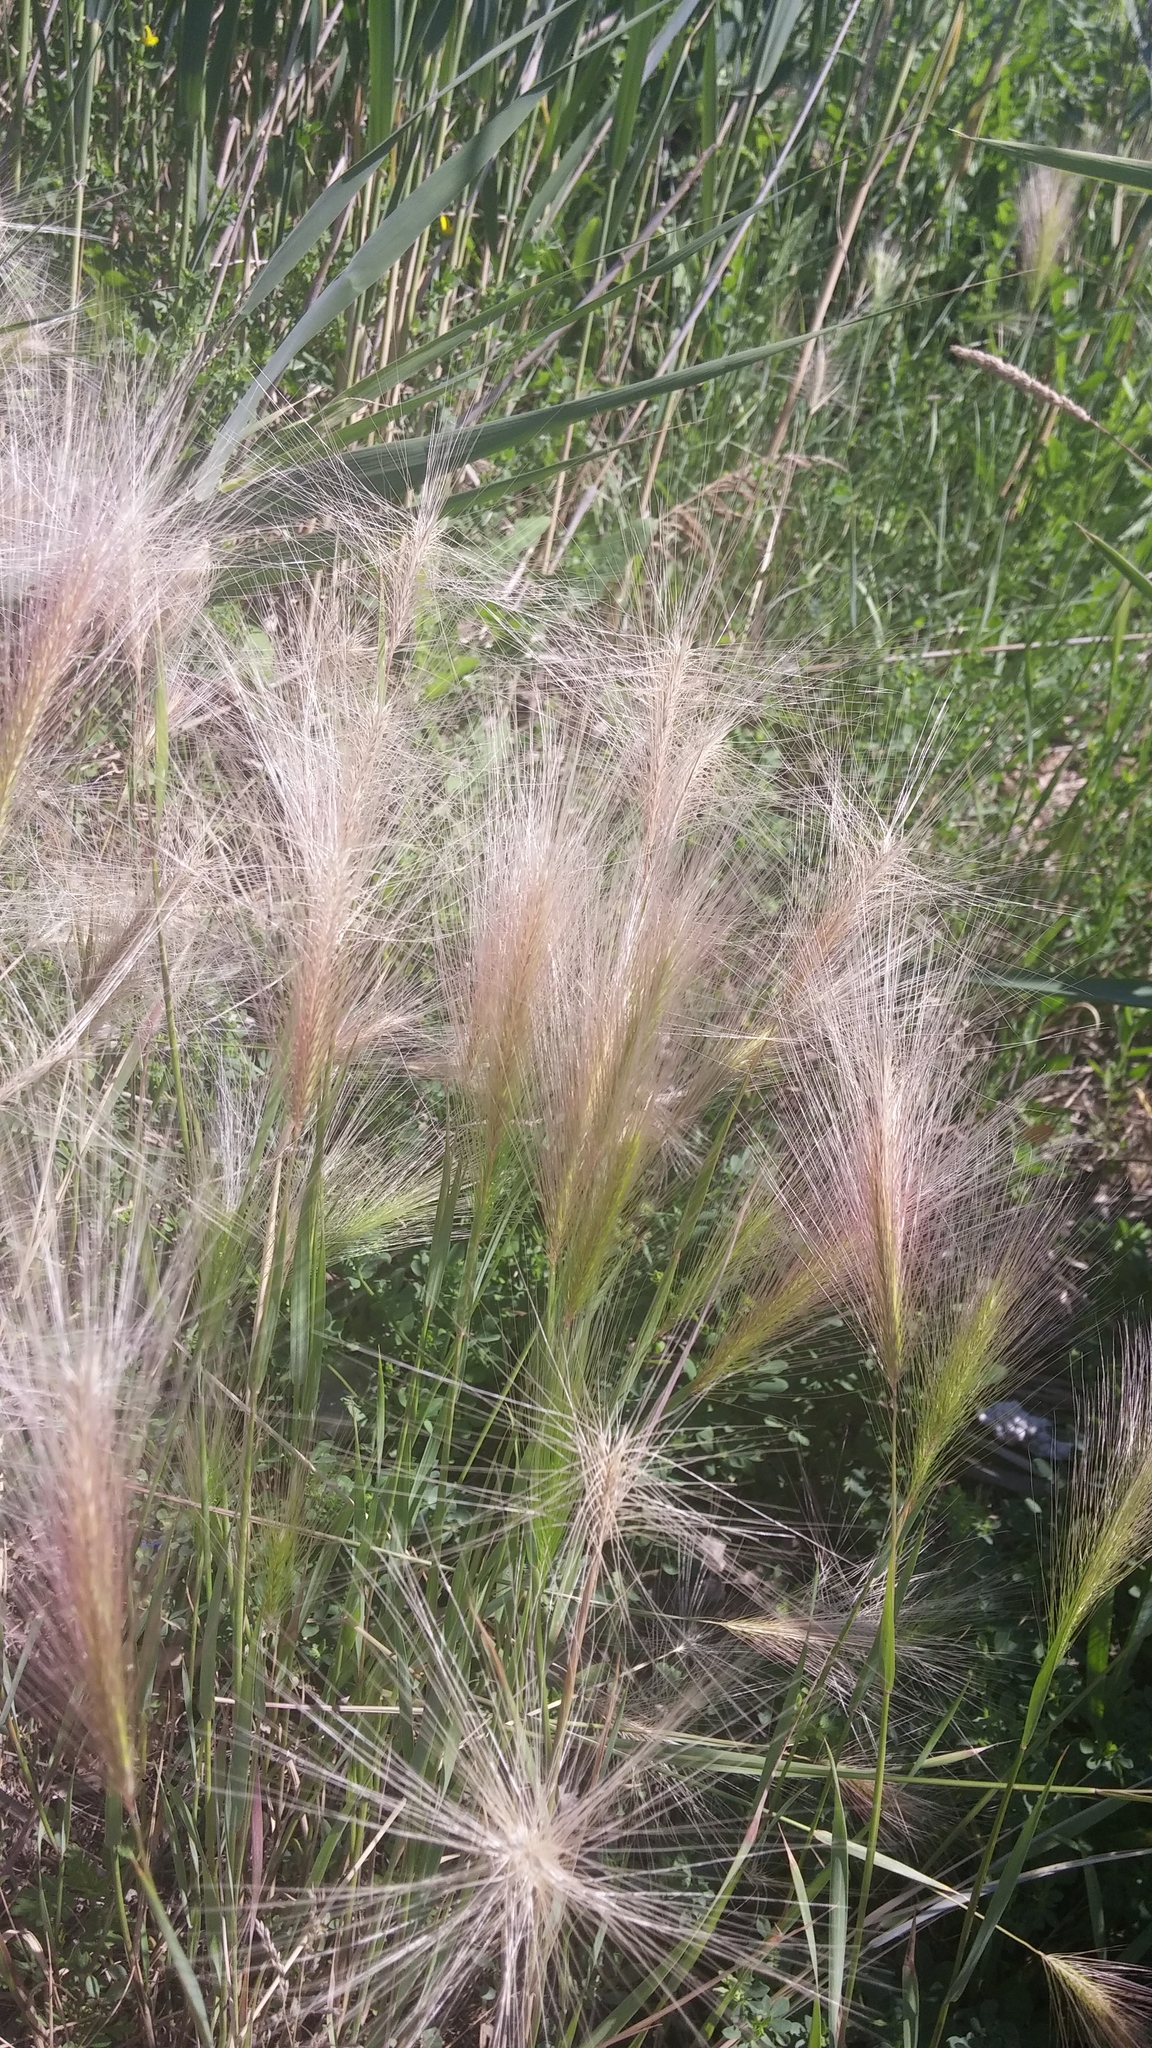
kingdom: Plantae
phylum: Tracheophyta
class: Liliopsida
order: Poales
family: Poaceae
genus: Hordeum
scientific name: Hordeum jubatum
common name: Foxtail barley
